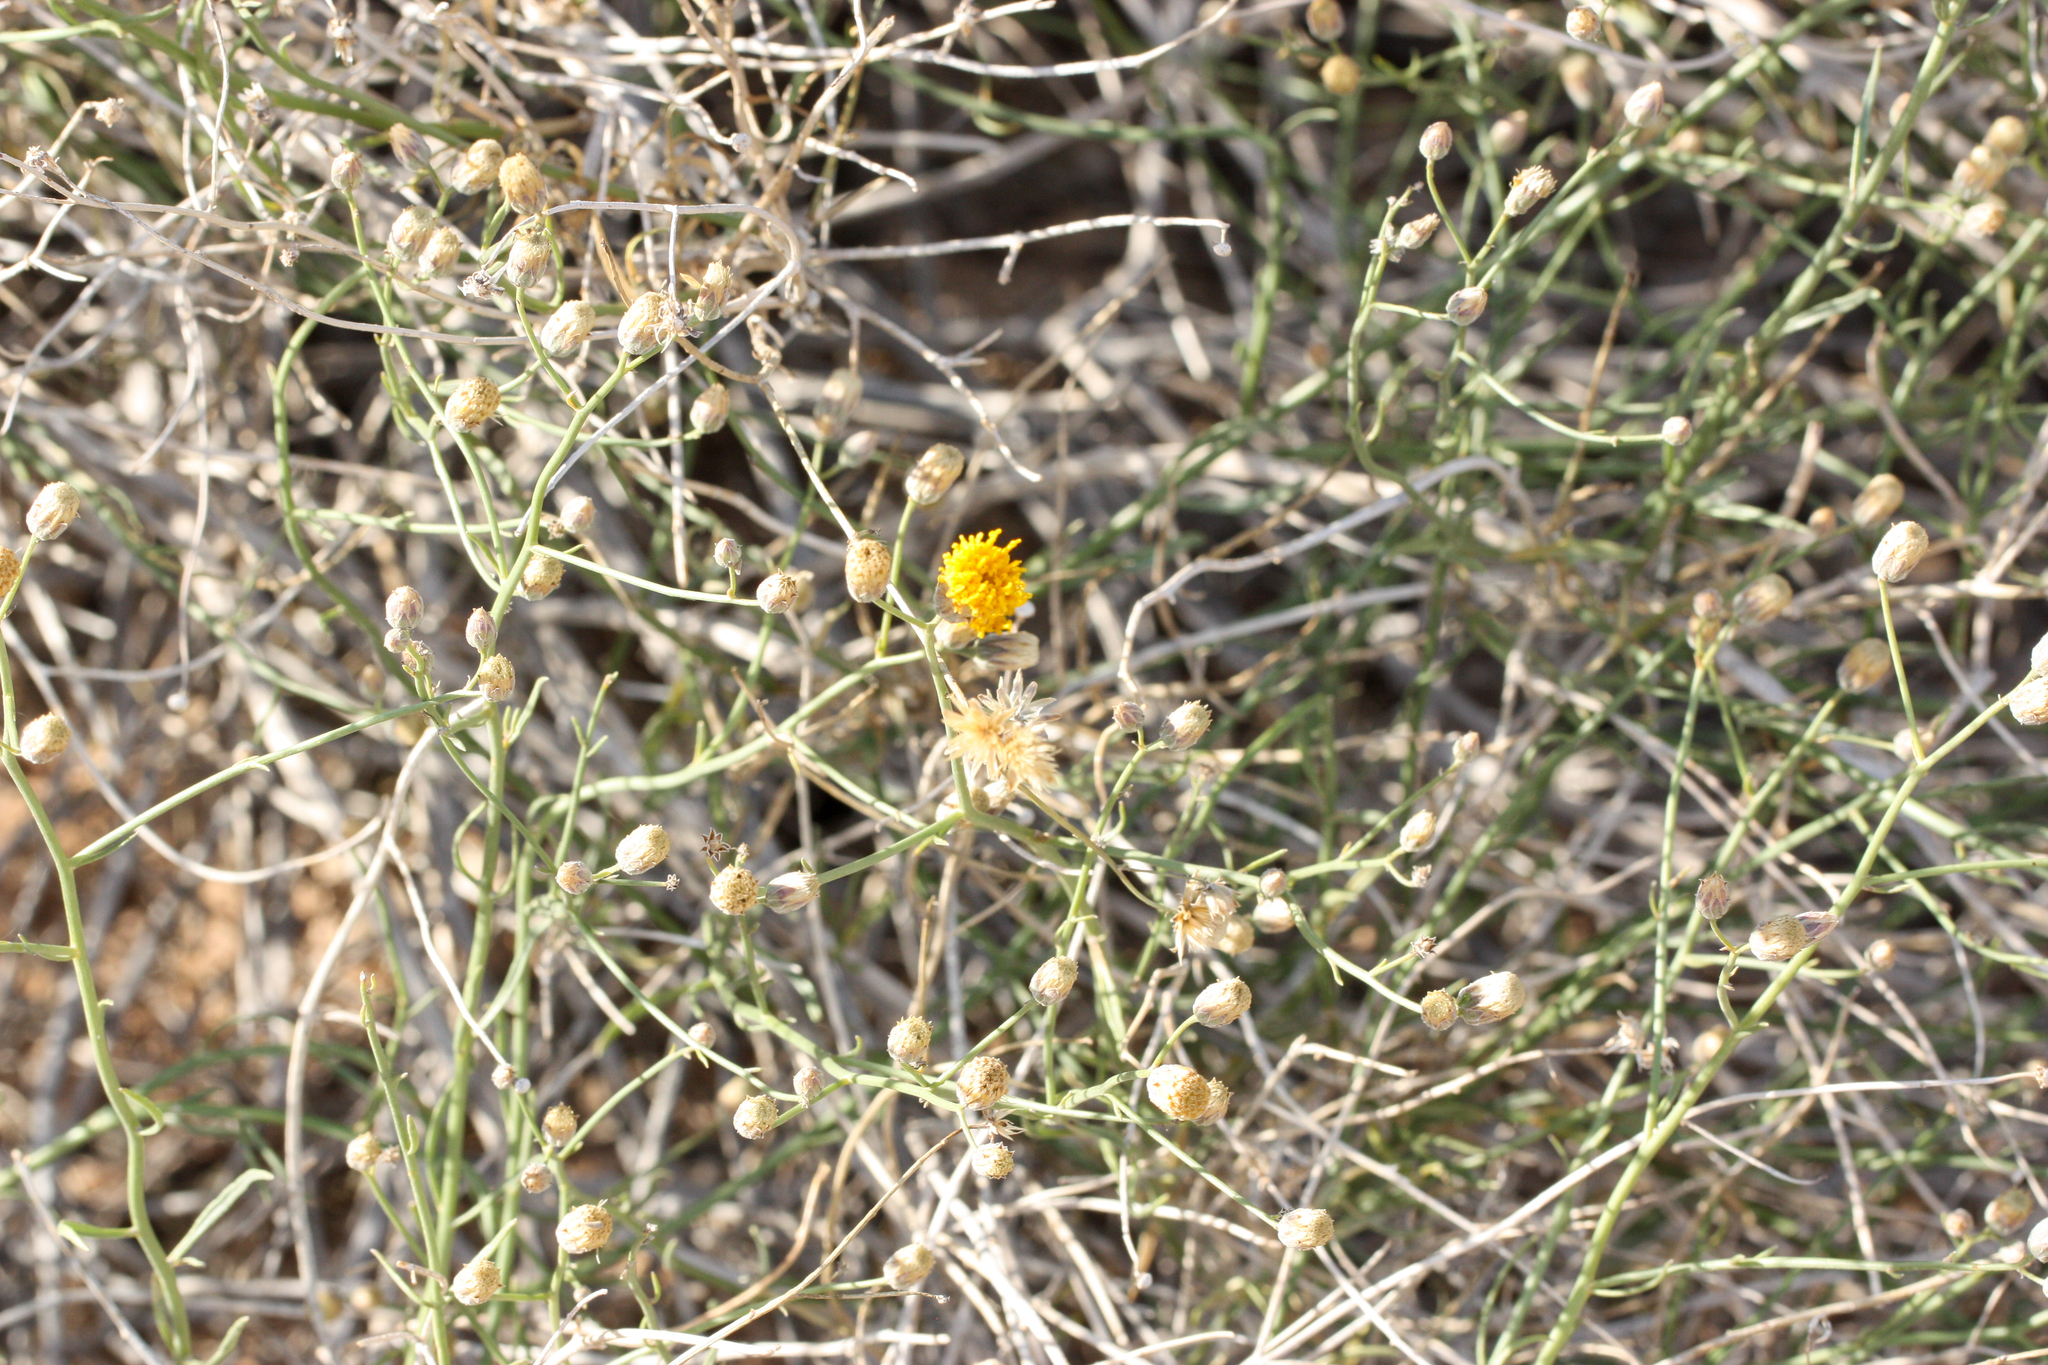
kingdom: Plantae
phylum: Tracheophyta
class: Magnoliopsida
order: Asterales
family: Asteraceae
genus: Bebbia
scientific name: Bebbia juncea
